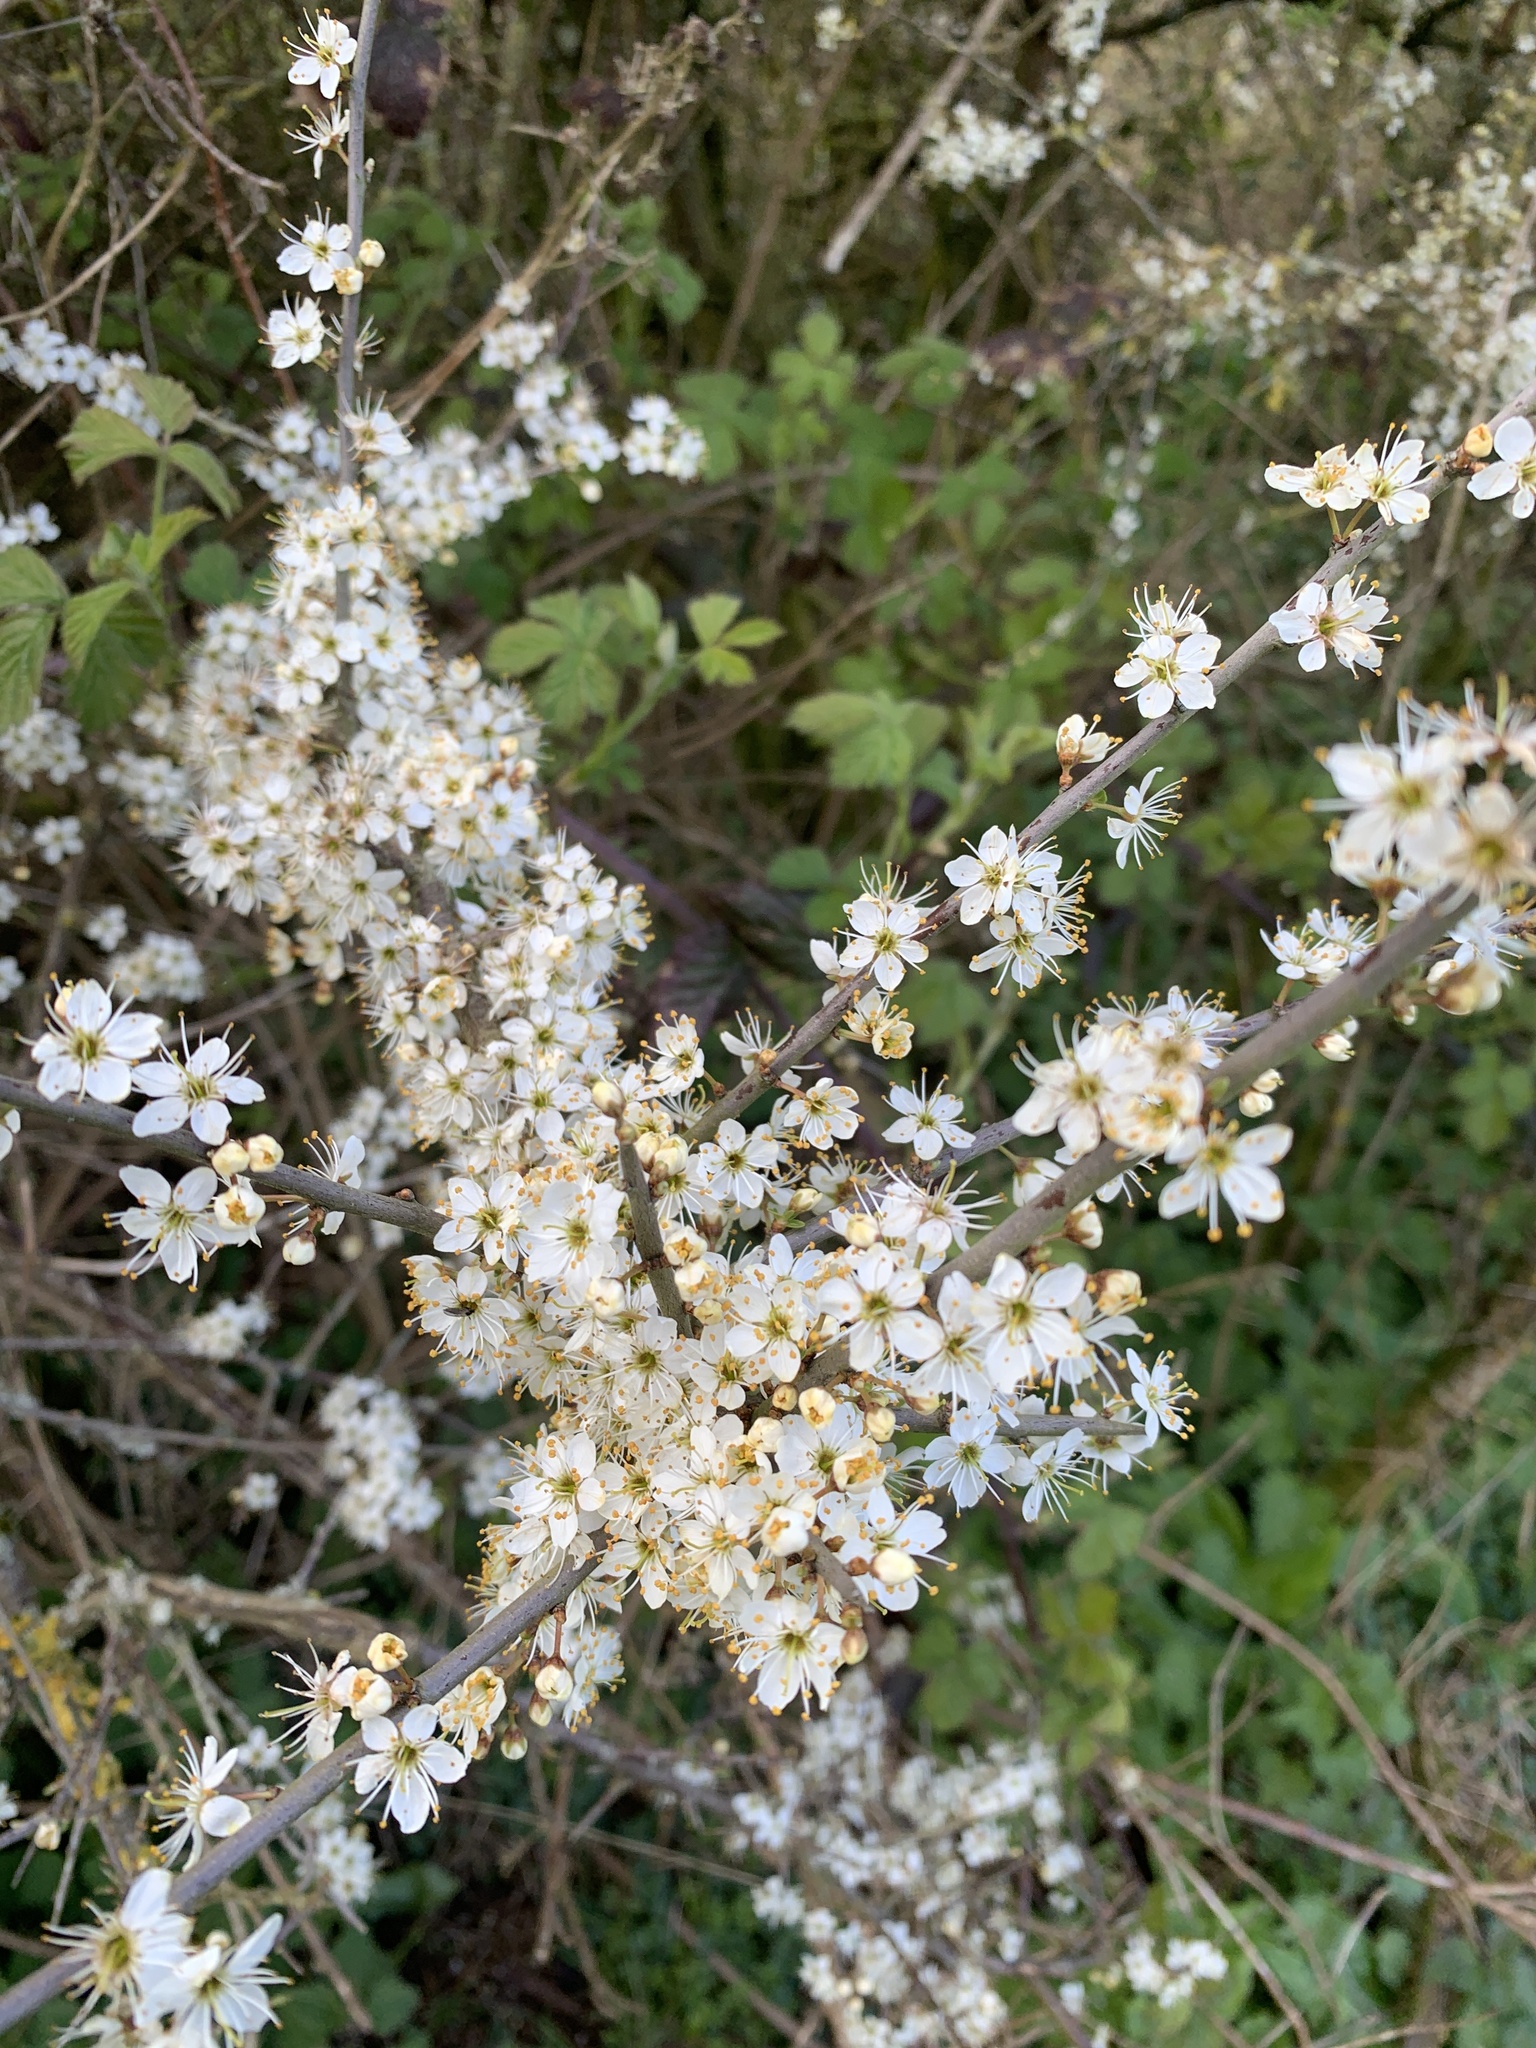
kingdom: Plantae
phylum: Tracheophyta
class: Magnoliopsida
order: Rosales
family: Rosaceae
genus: Prunus
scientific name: Prunus spinosa
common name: Blackthorn
